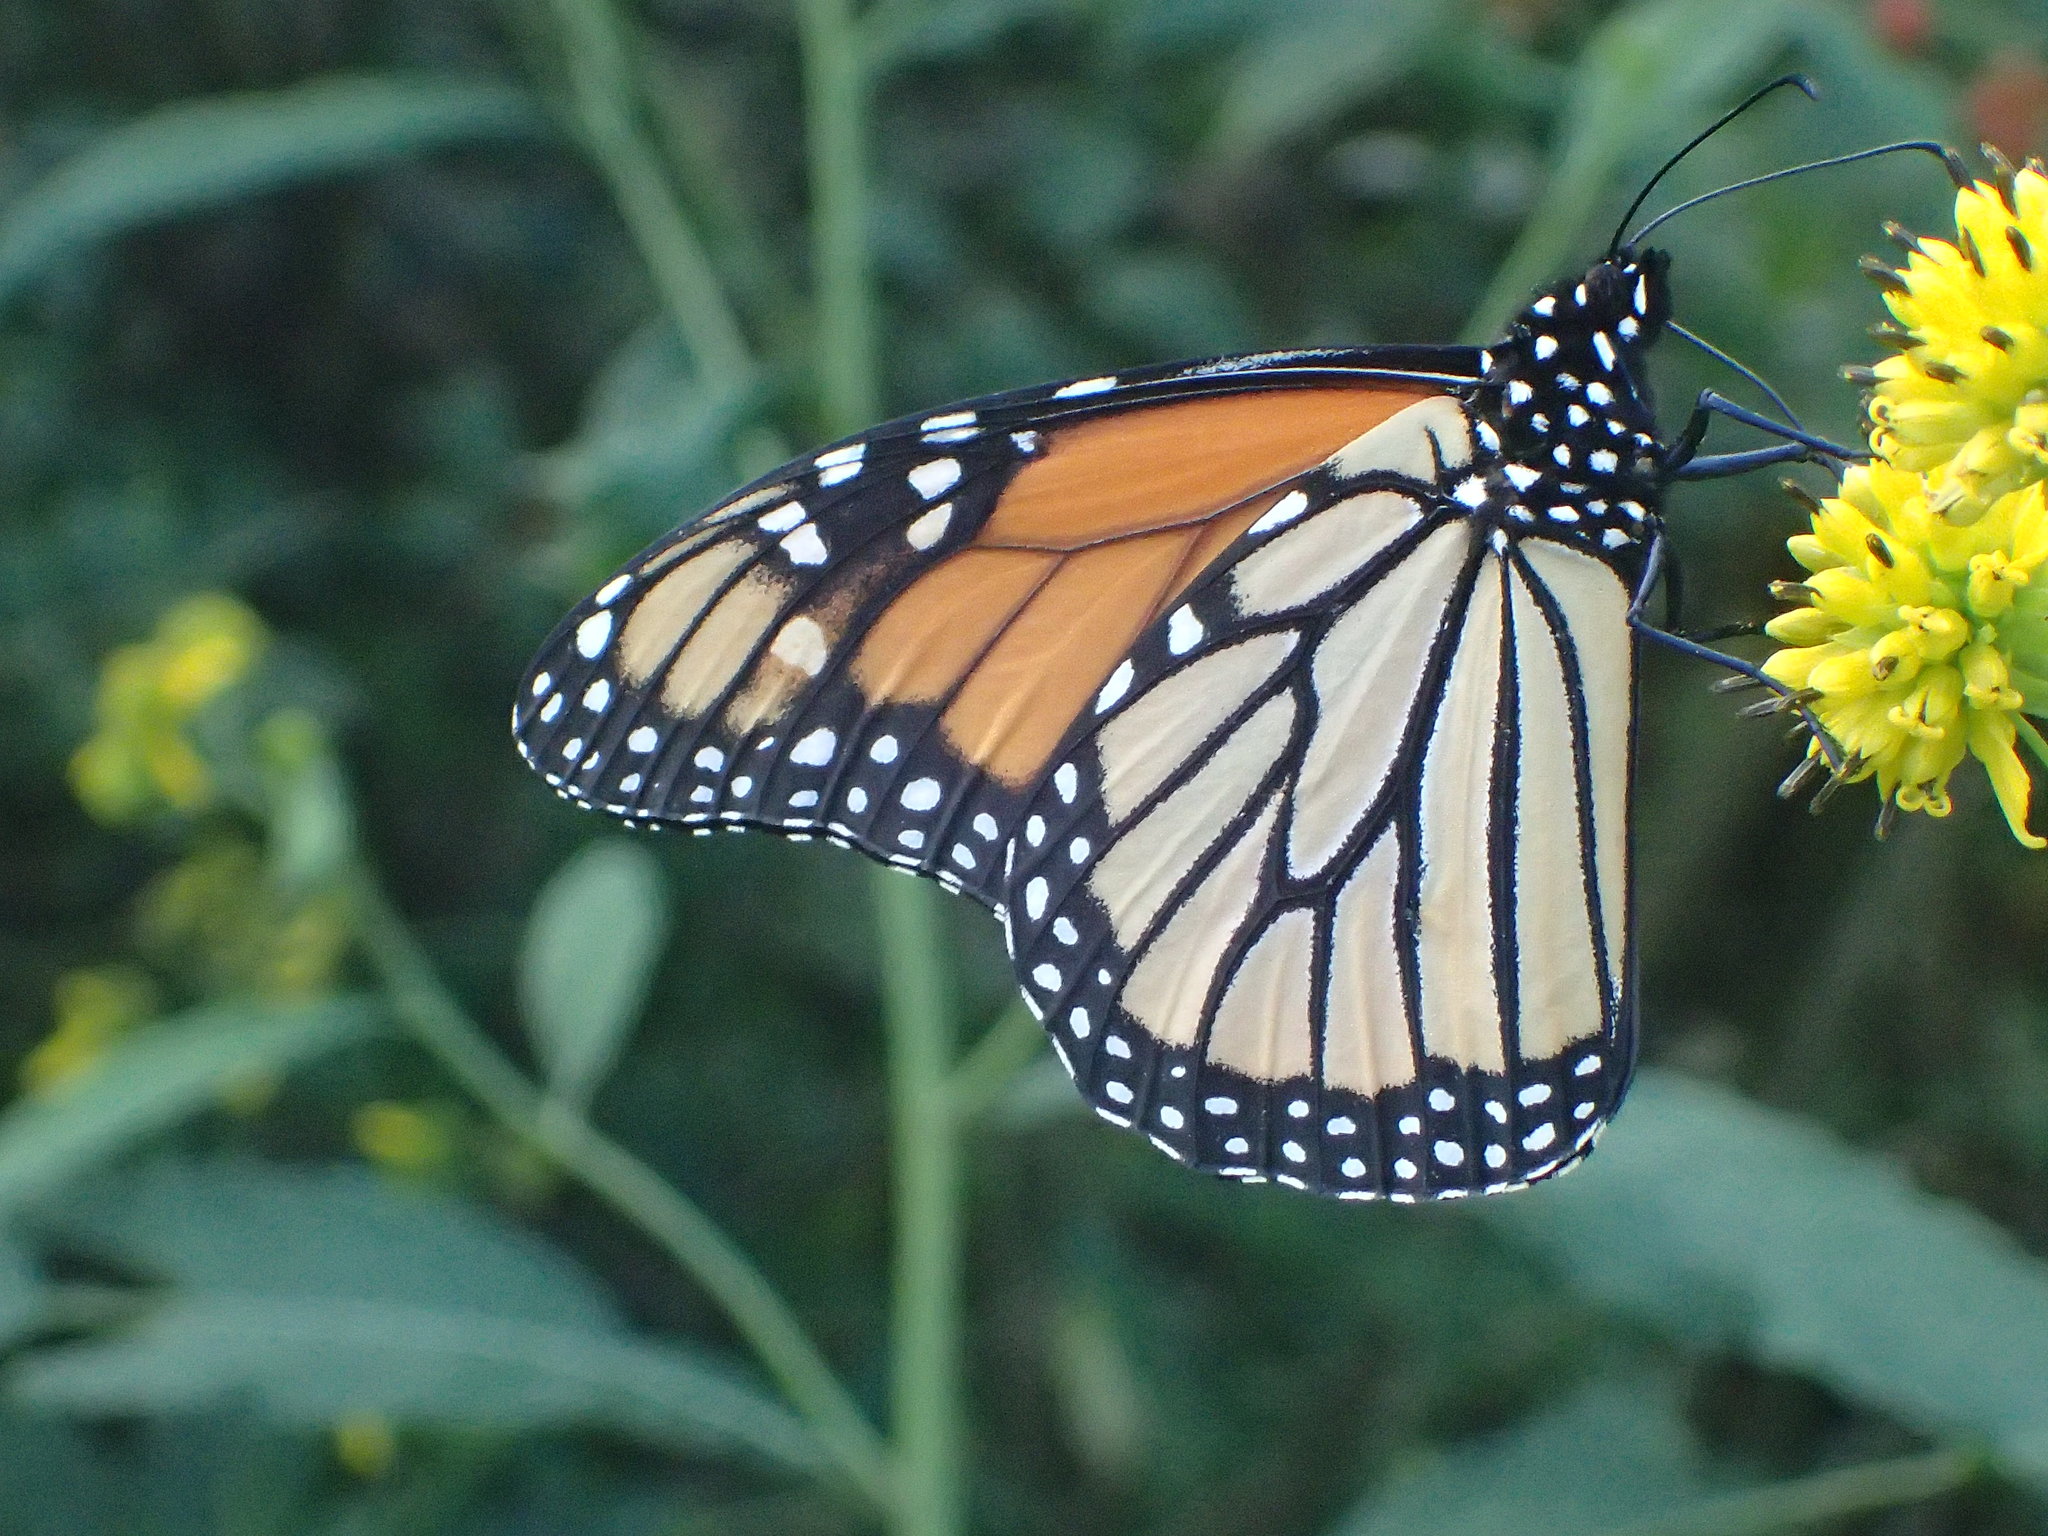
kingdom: Animalia
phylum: Arthropoda
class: Insecta
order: Lepidoptera
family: Nymphalidae
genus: Danaus
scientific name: Danaus plexippus
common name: Monarch
